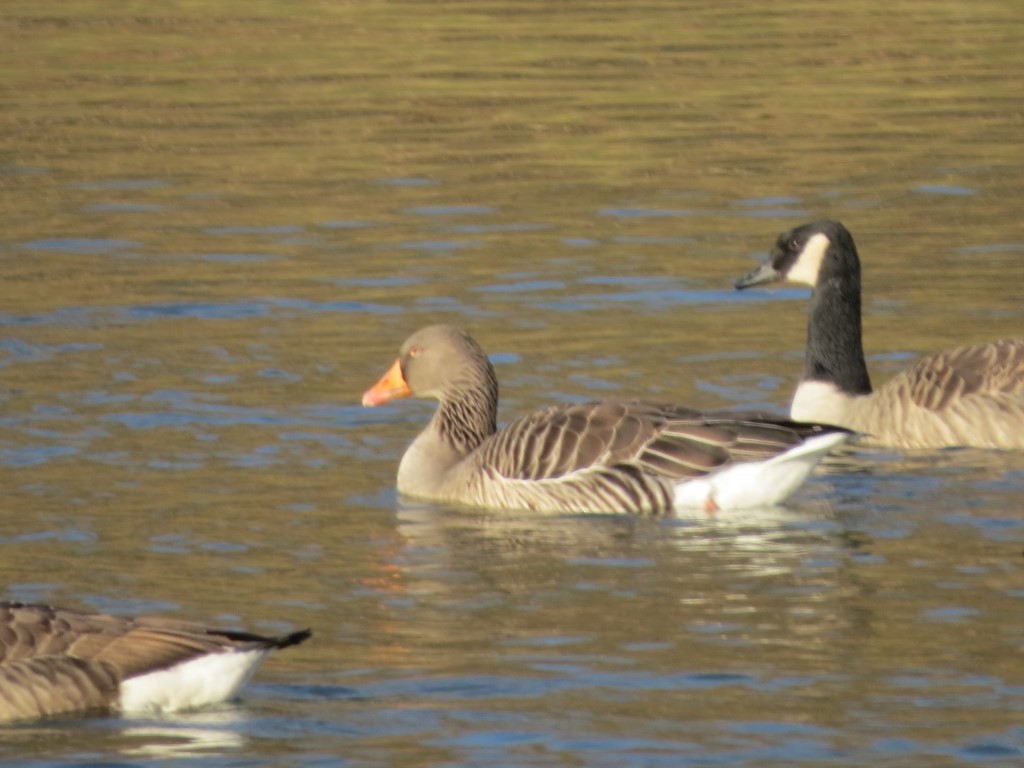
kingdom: Animalia
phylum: Chordata
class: Aves
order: Anseriformes
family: Anatidae
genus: Anser
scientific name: Anser anser
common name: Greylag goose
